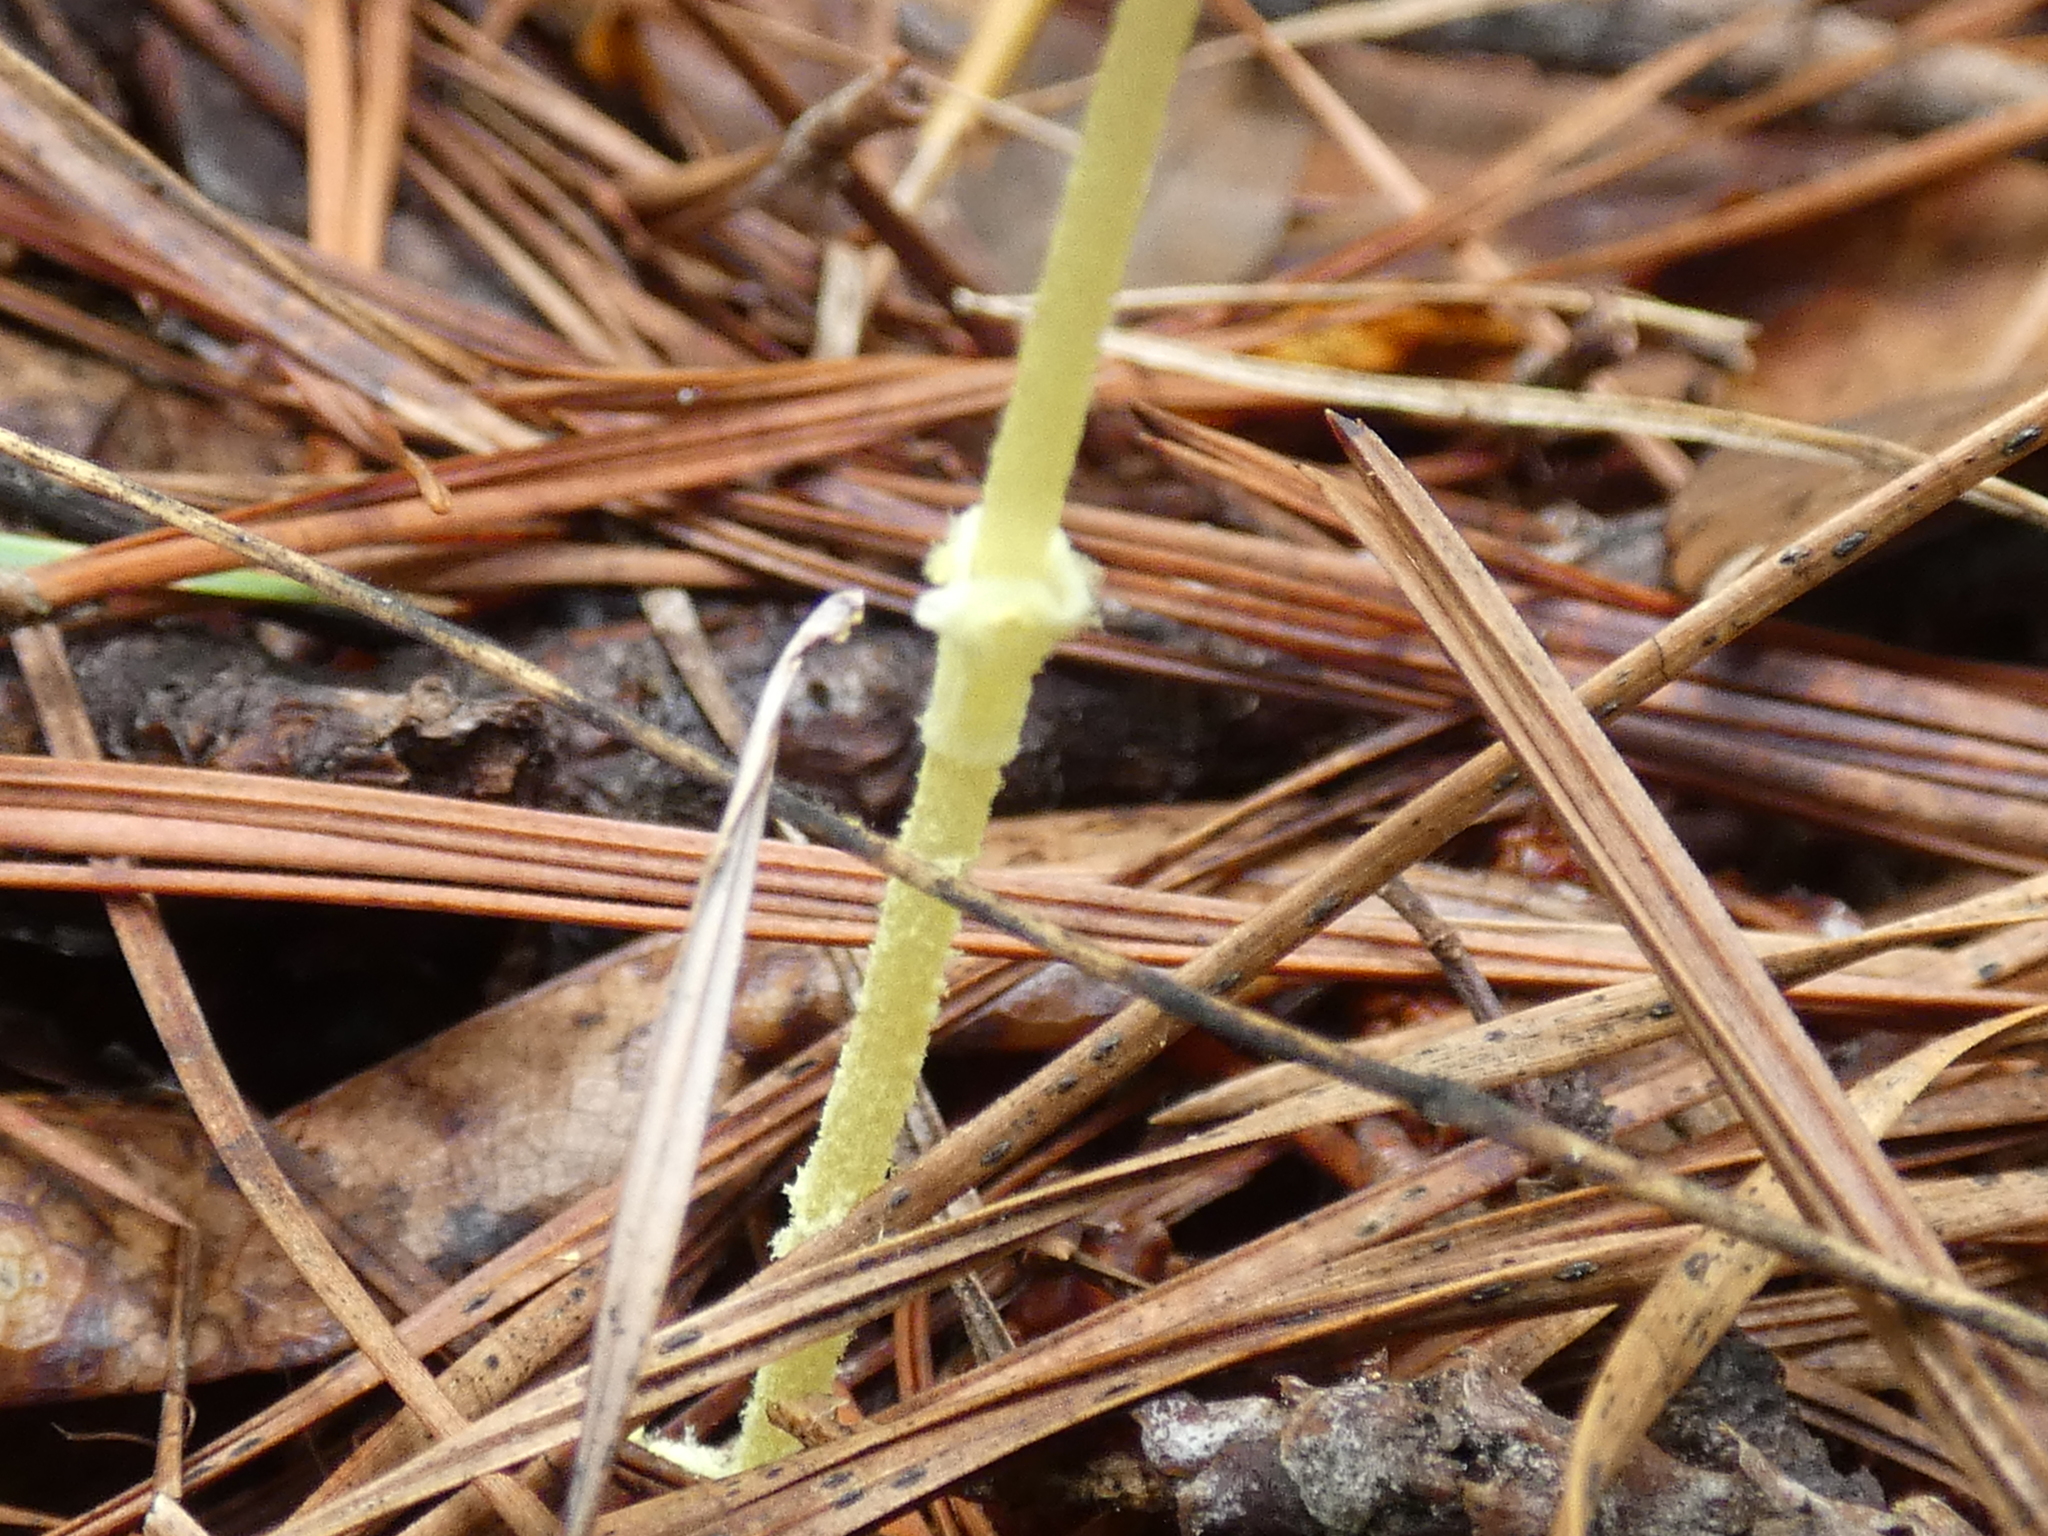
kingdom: Fungi
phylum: Basidiomycota
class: Agaricomycetes
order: Agaricales
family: Agaricaceae
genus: Leucocoprinus
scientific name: Leucocoprinus fragilissimus
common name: Fragile dapperling
